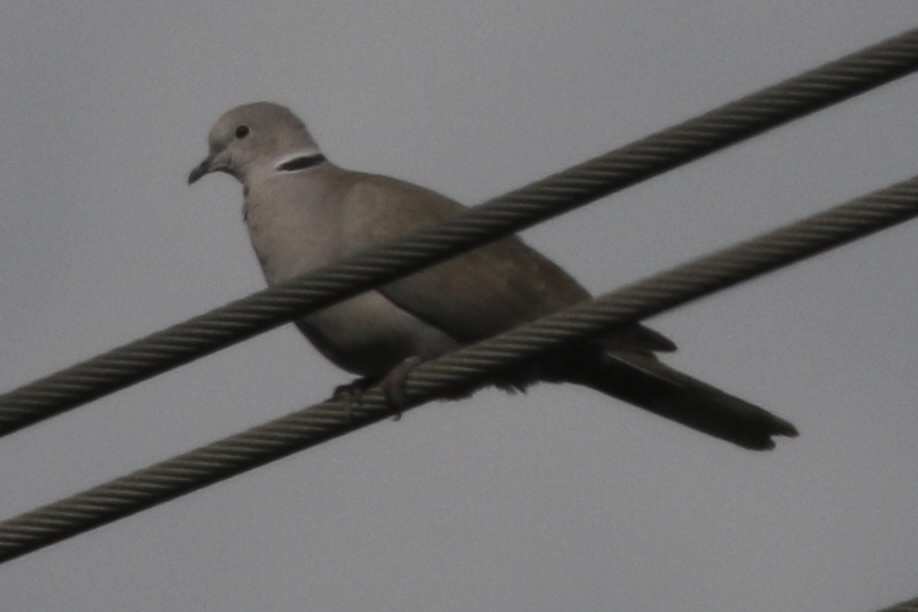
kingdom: Animalia
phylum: Chordata
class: Aves
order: Columbiformes
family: Columbidae
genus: Streptopelia
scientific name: Streptopelia decaocto
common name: Eurasian collared dove
